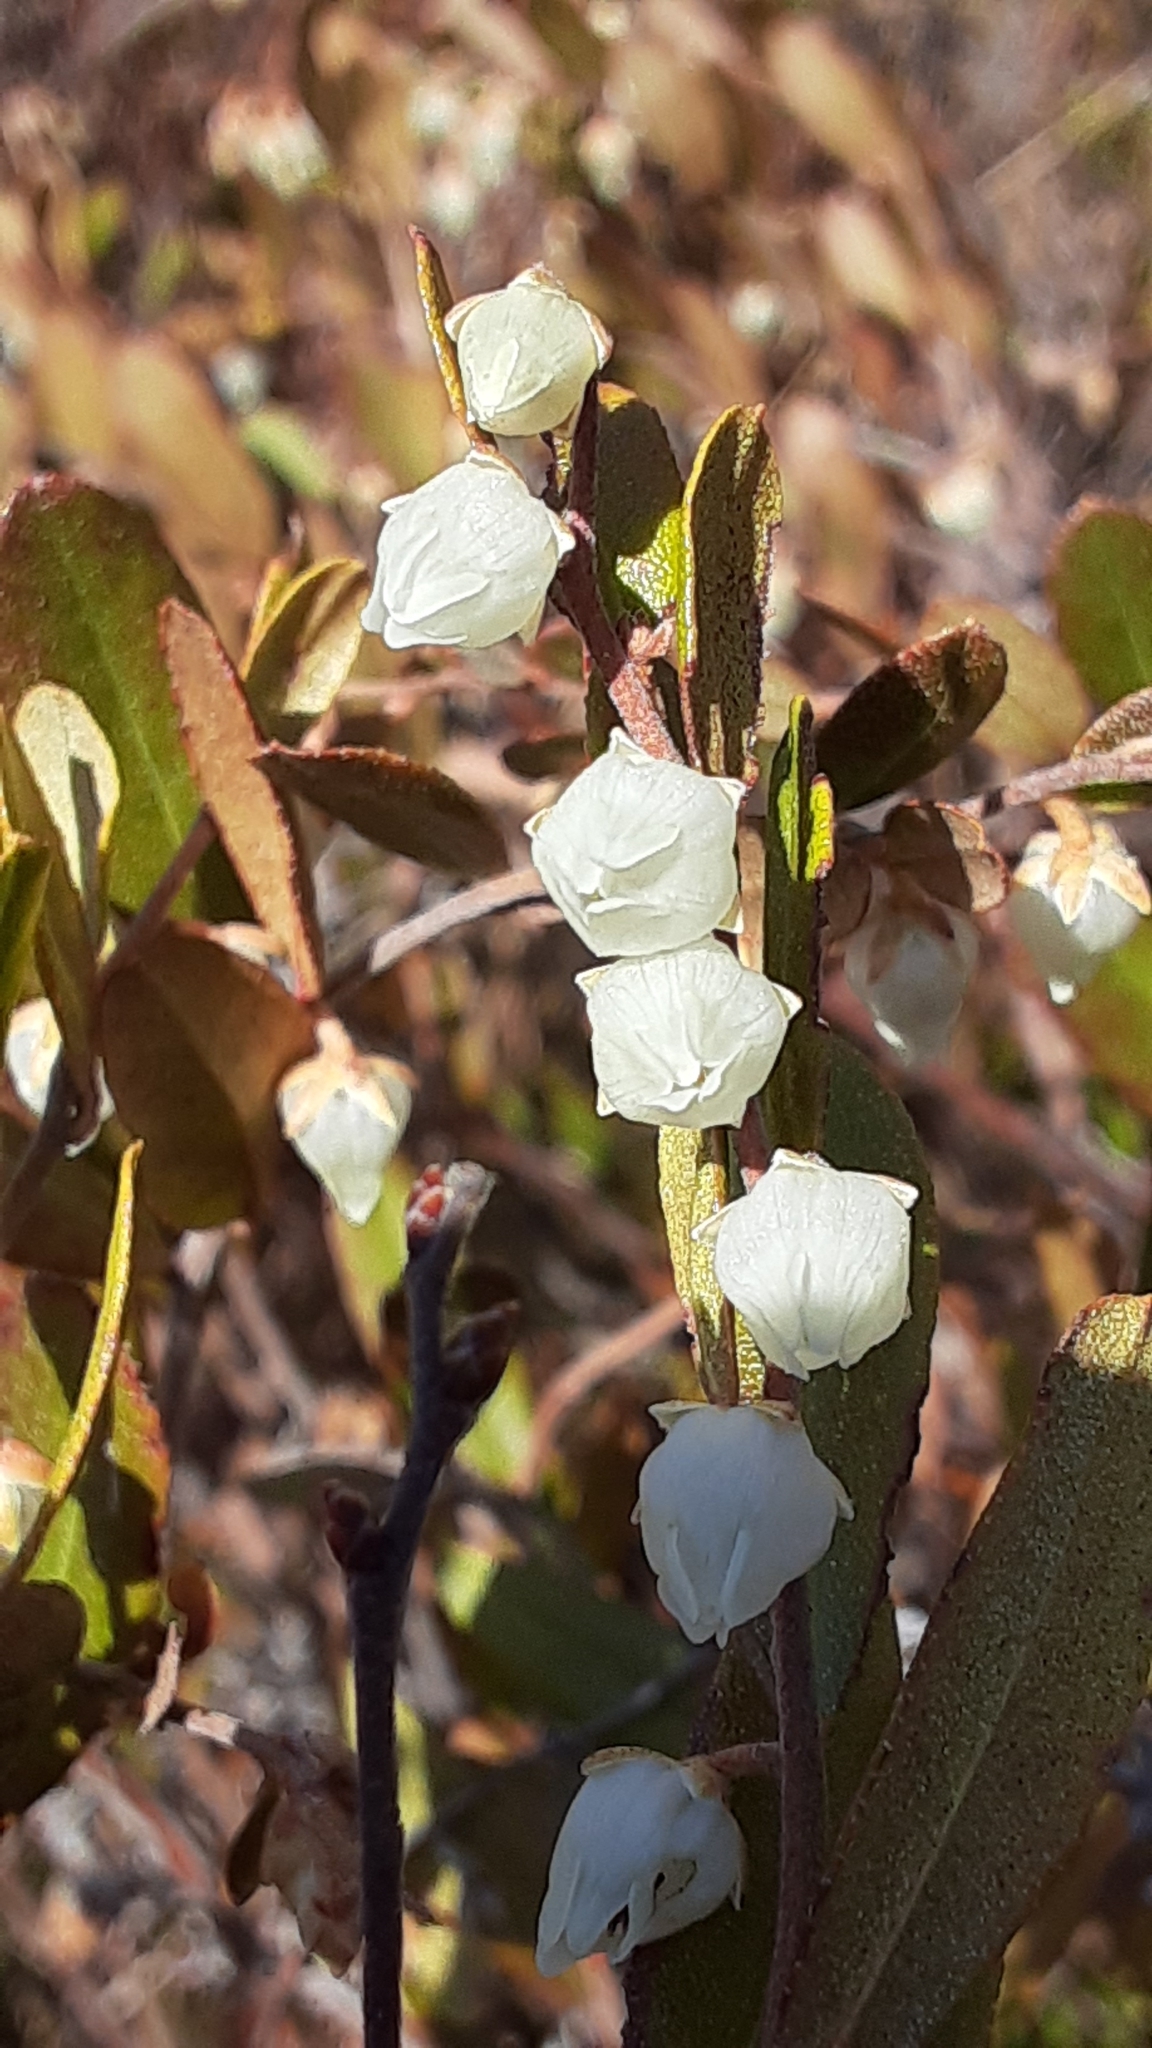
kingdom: Plantae
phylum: Tracheophyta
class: Magnoliopsida
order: Ericales
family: Ericaceae
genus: Chamaedaphne
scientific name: Chamaedaphne calyculata
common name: Leatherleaf
